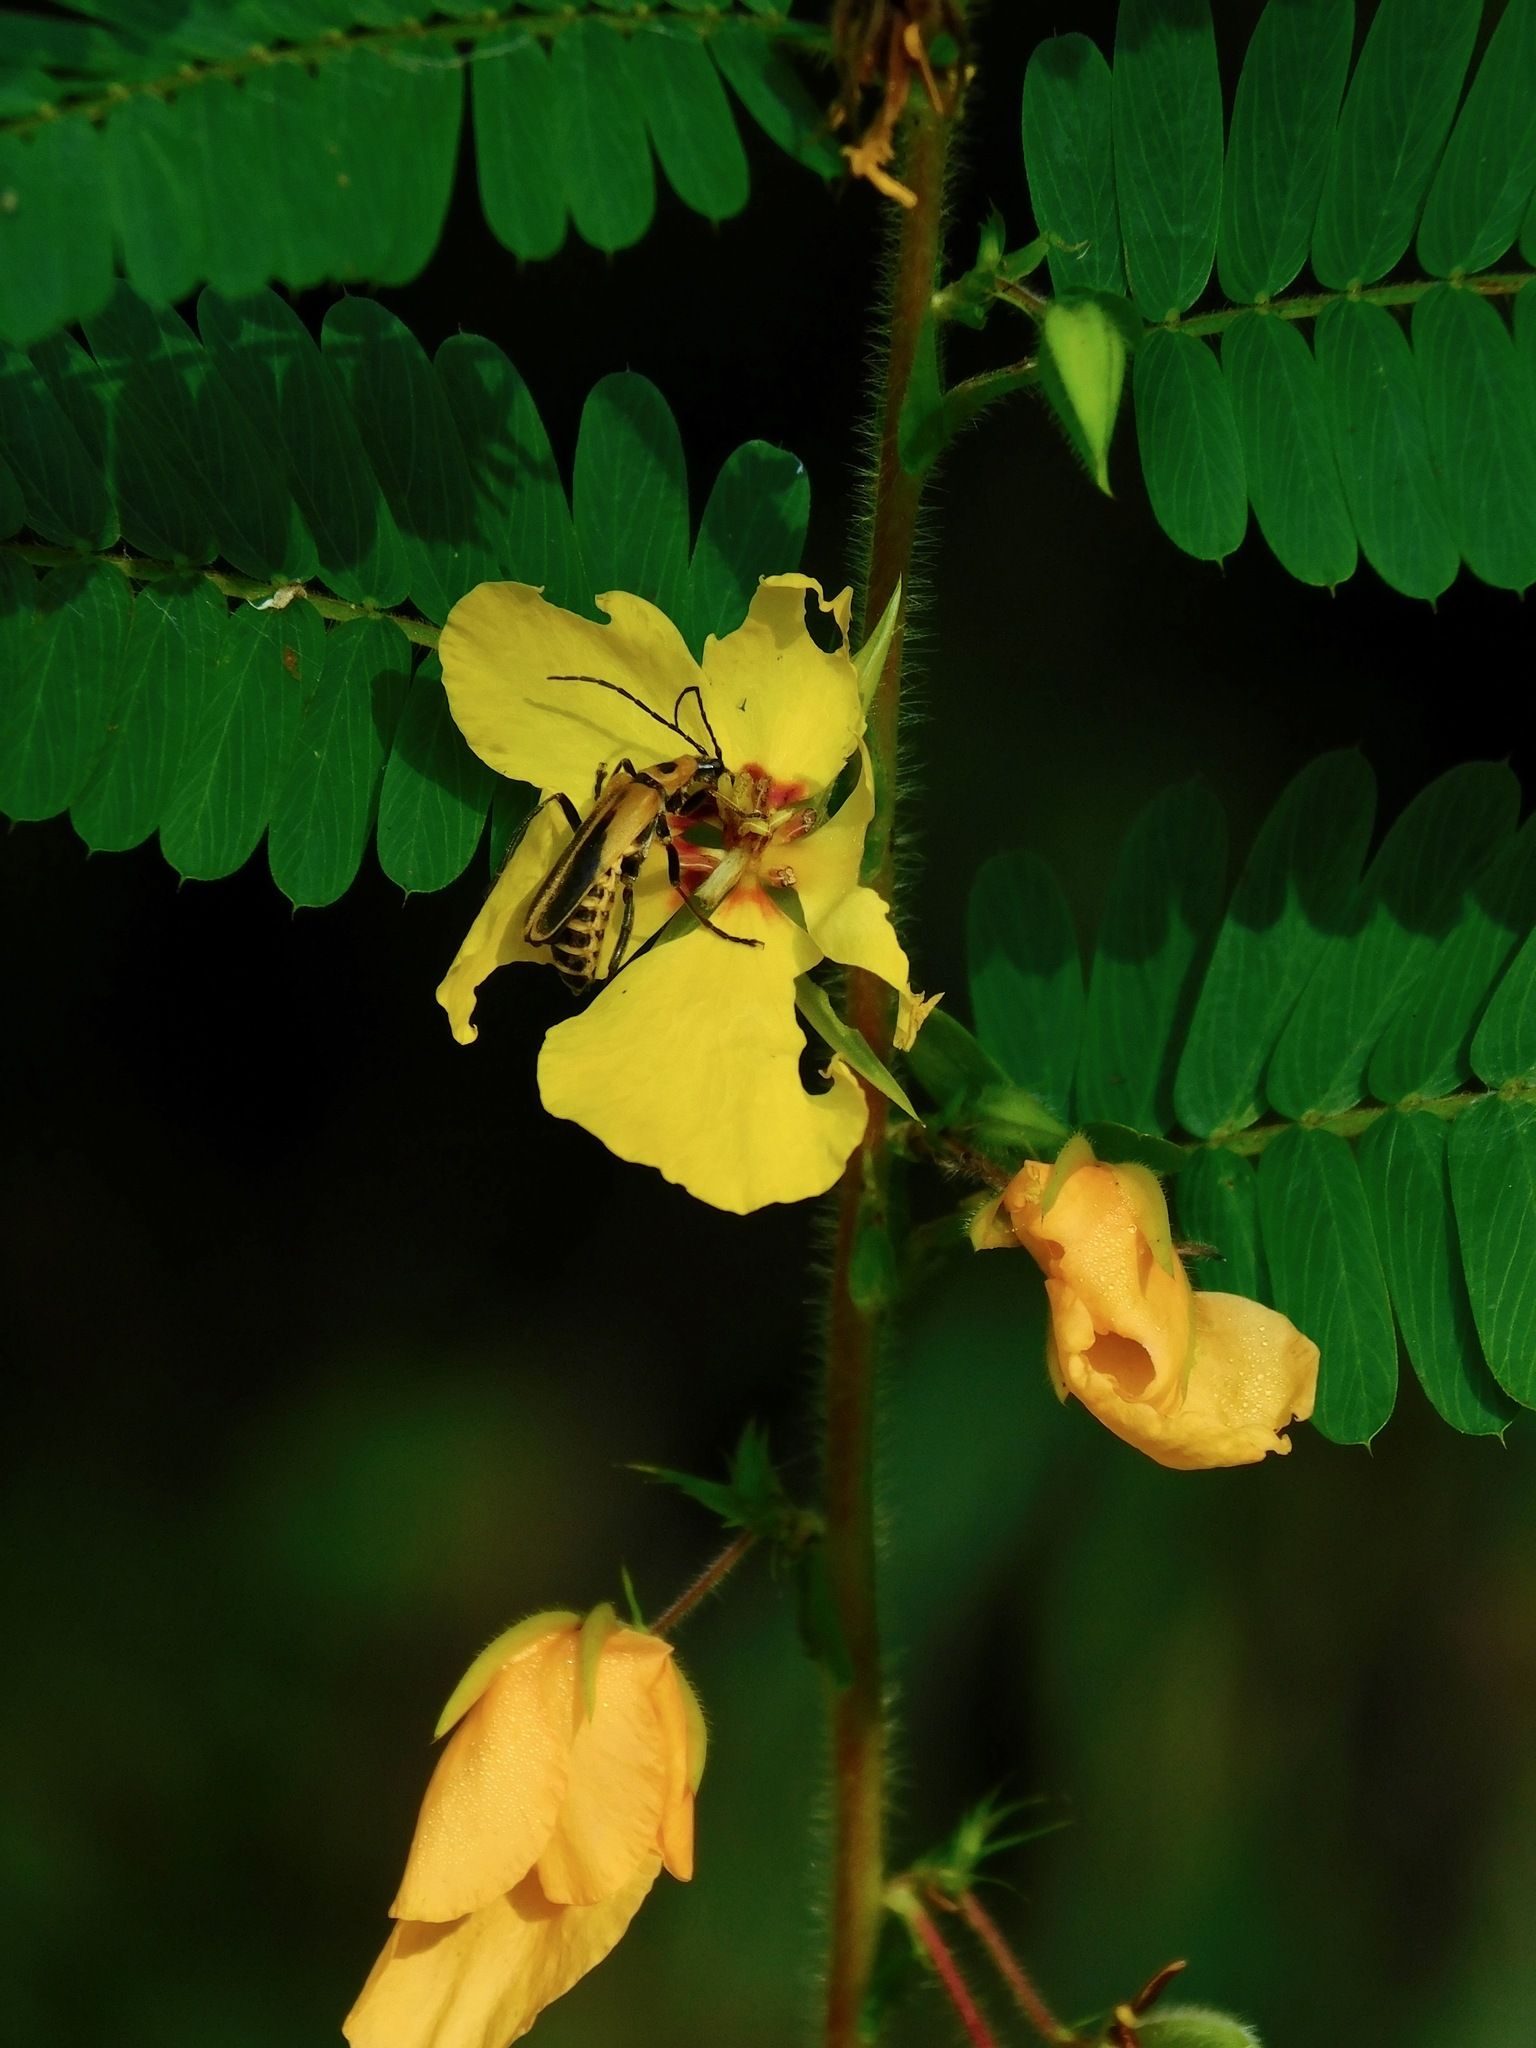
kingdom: Plantae
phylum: Tracheophyta
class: Magnoliopsida
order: Fabales
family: Fabaceae
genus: Chamaecrista
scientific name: Chamaecrista fasciculata
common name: Golden cassia
